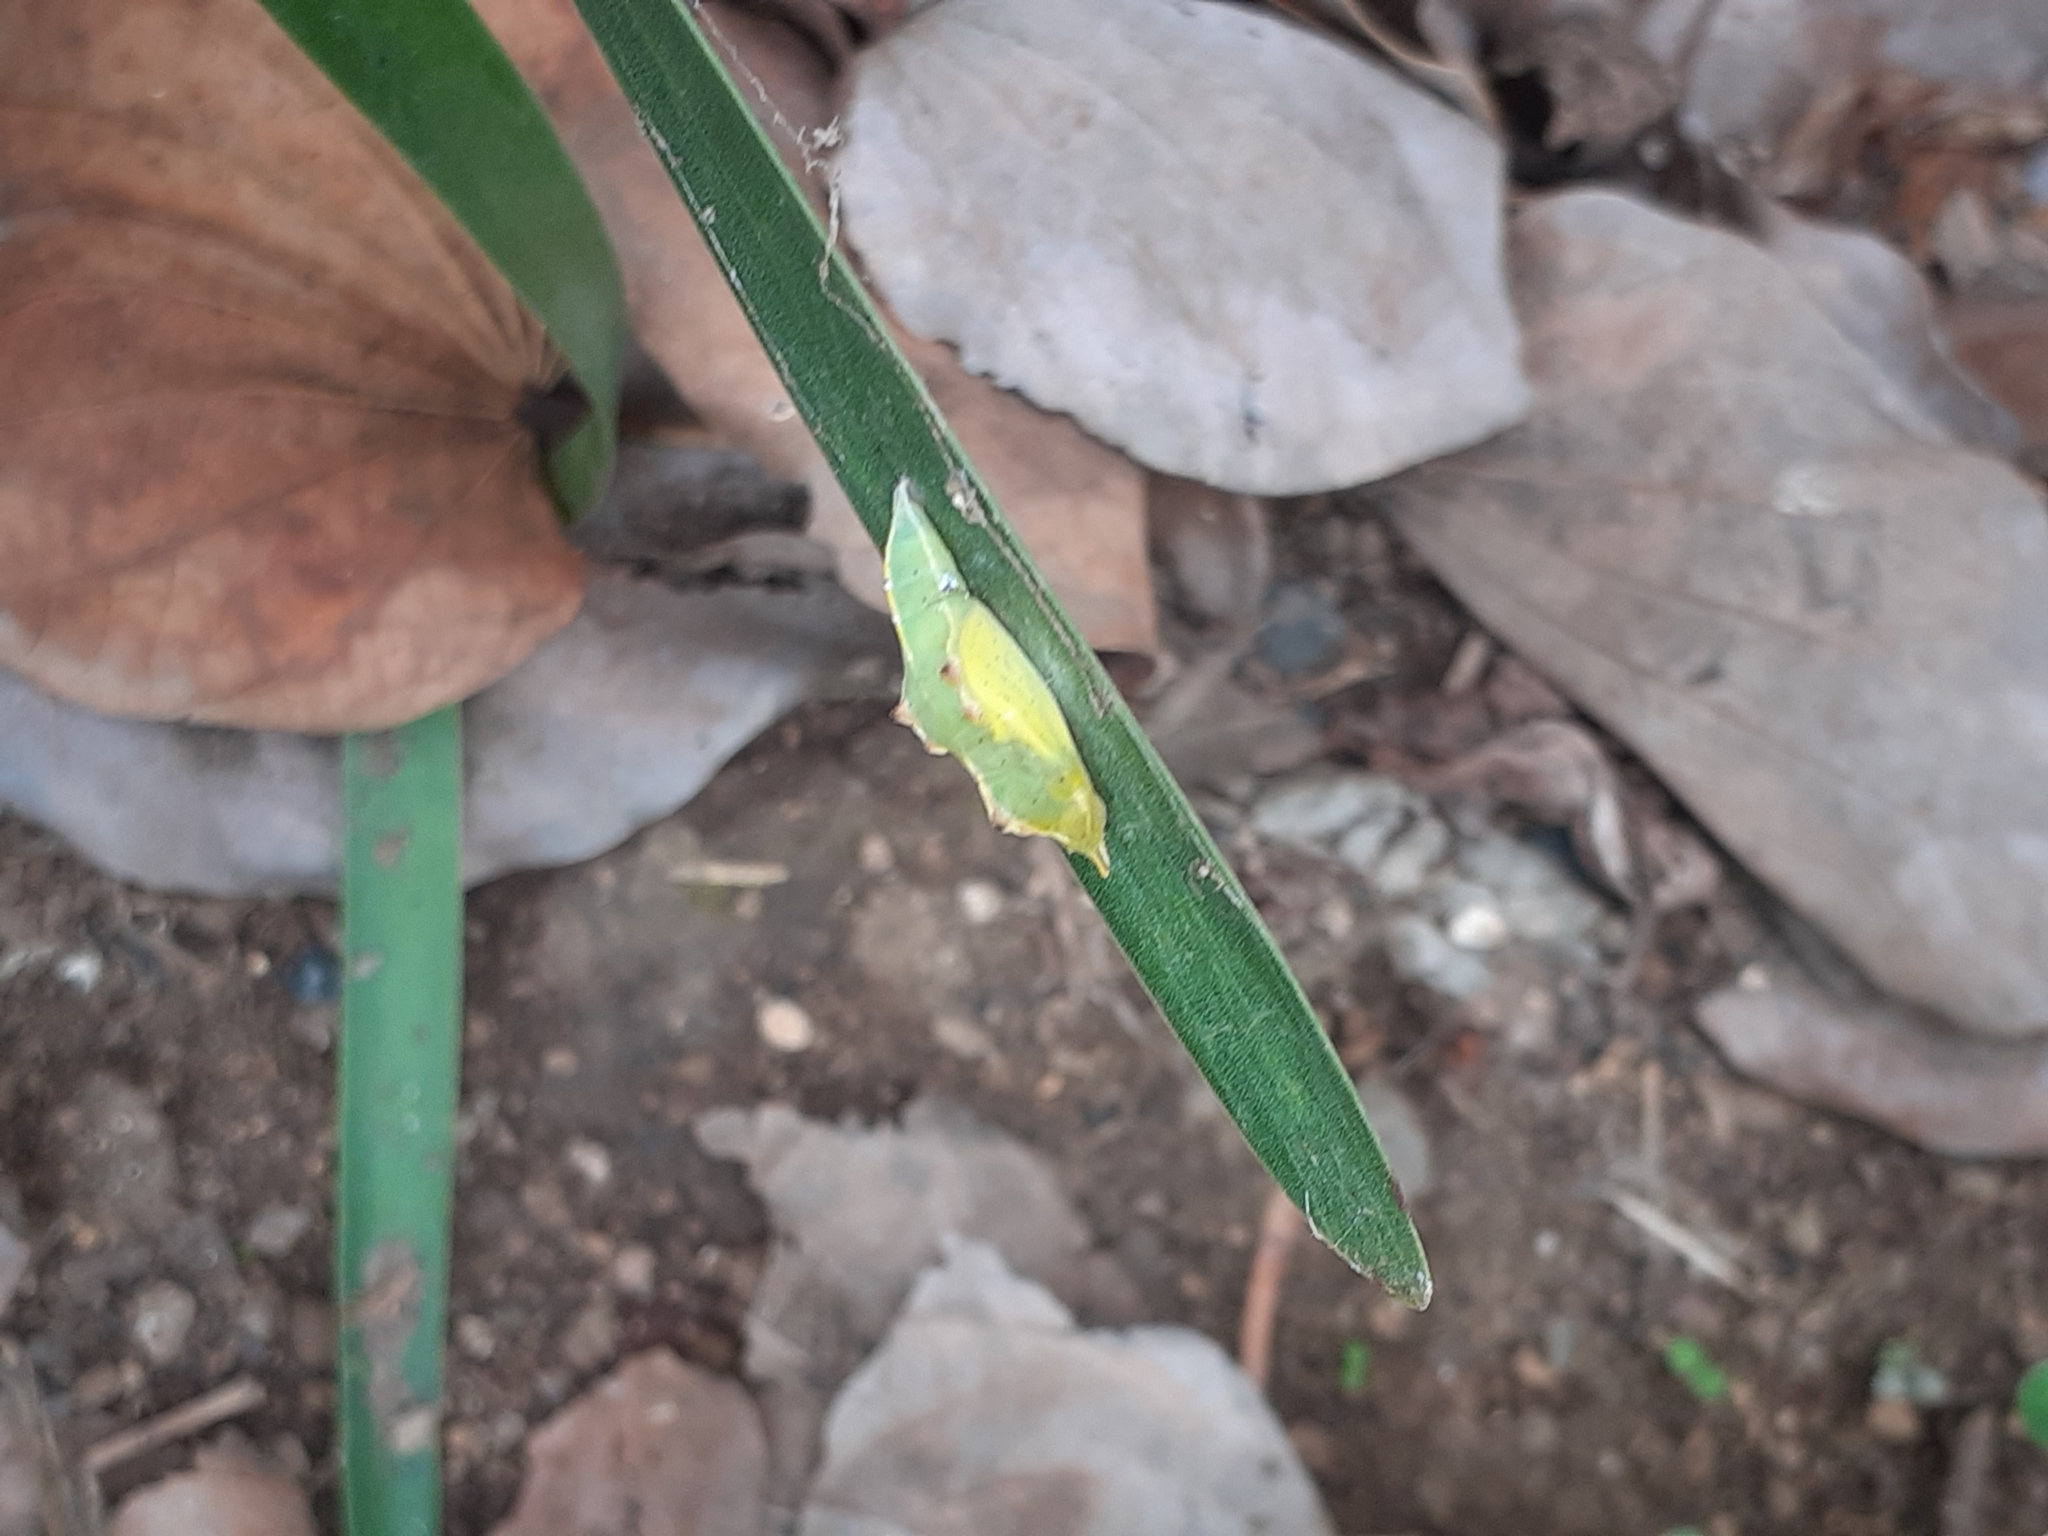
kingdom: Animalia
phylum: Arthropoda
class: Insecta
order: Lepidoptera
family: Pieridae
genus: Pieris
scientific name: Pieris rapae
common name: Small white
